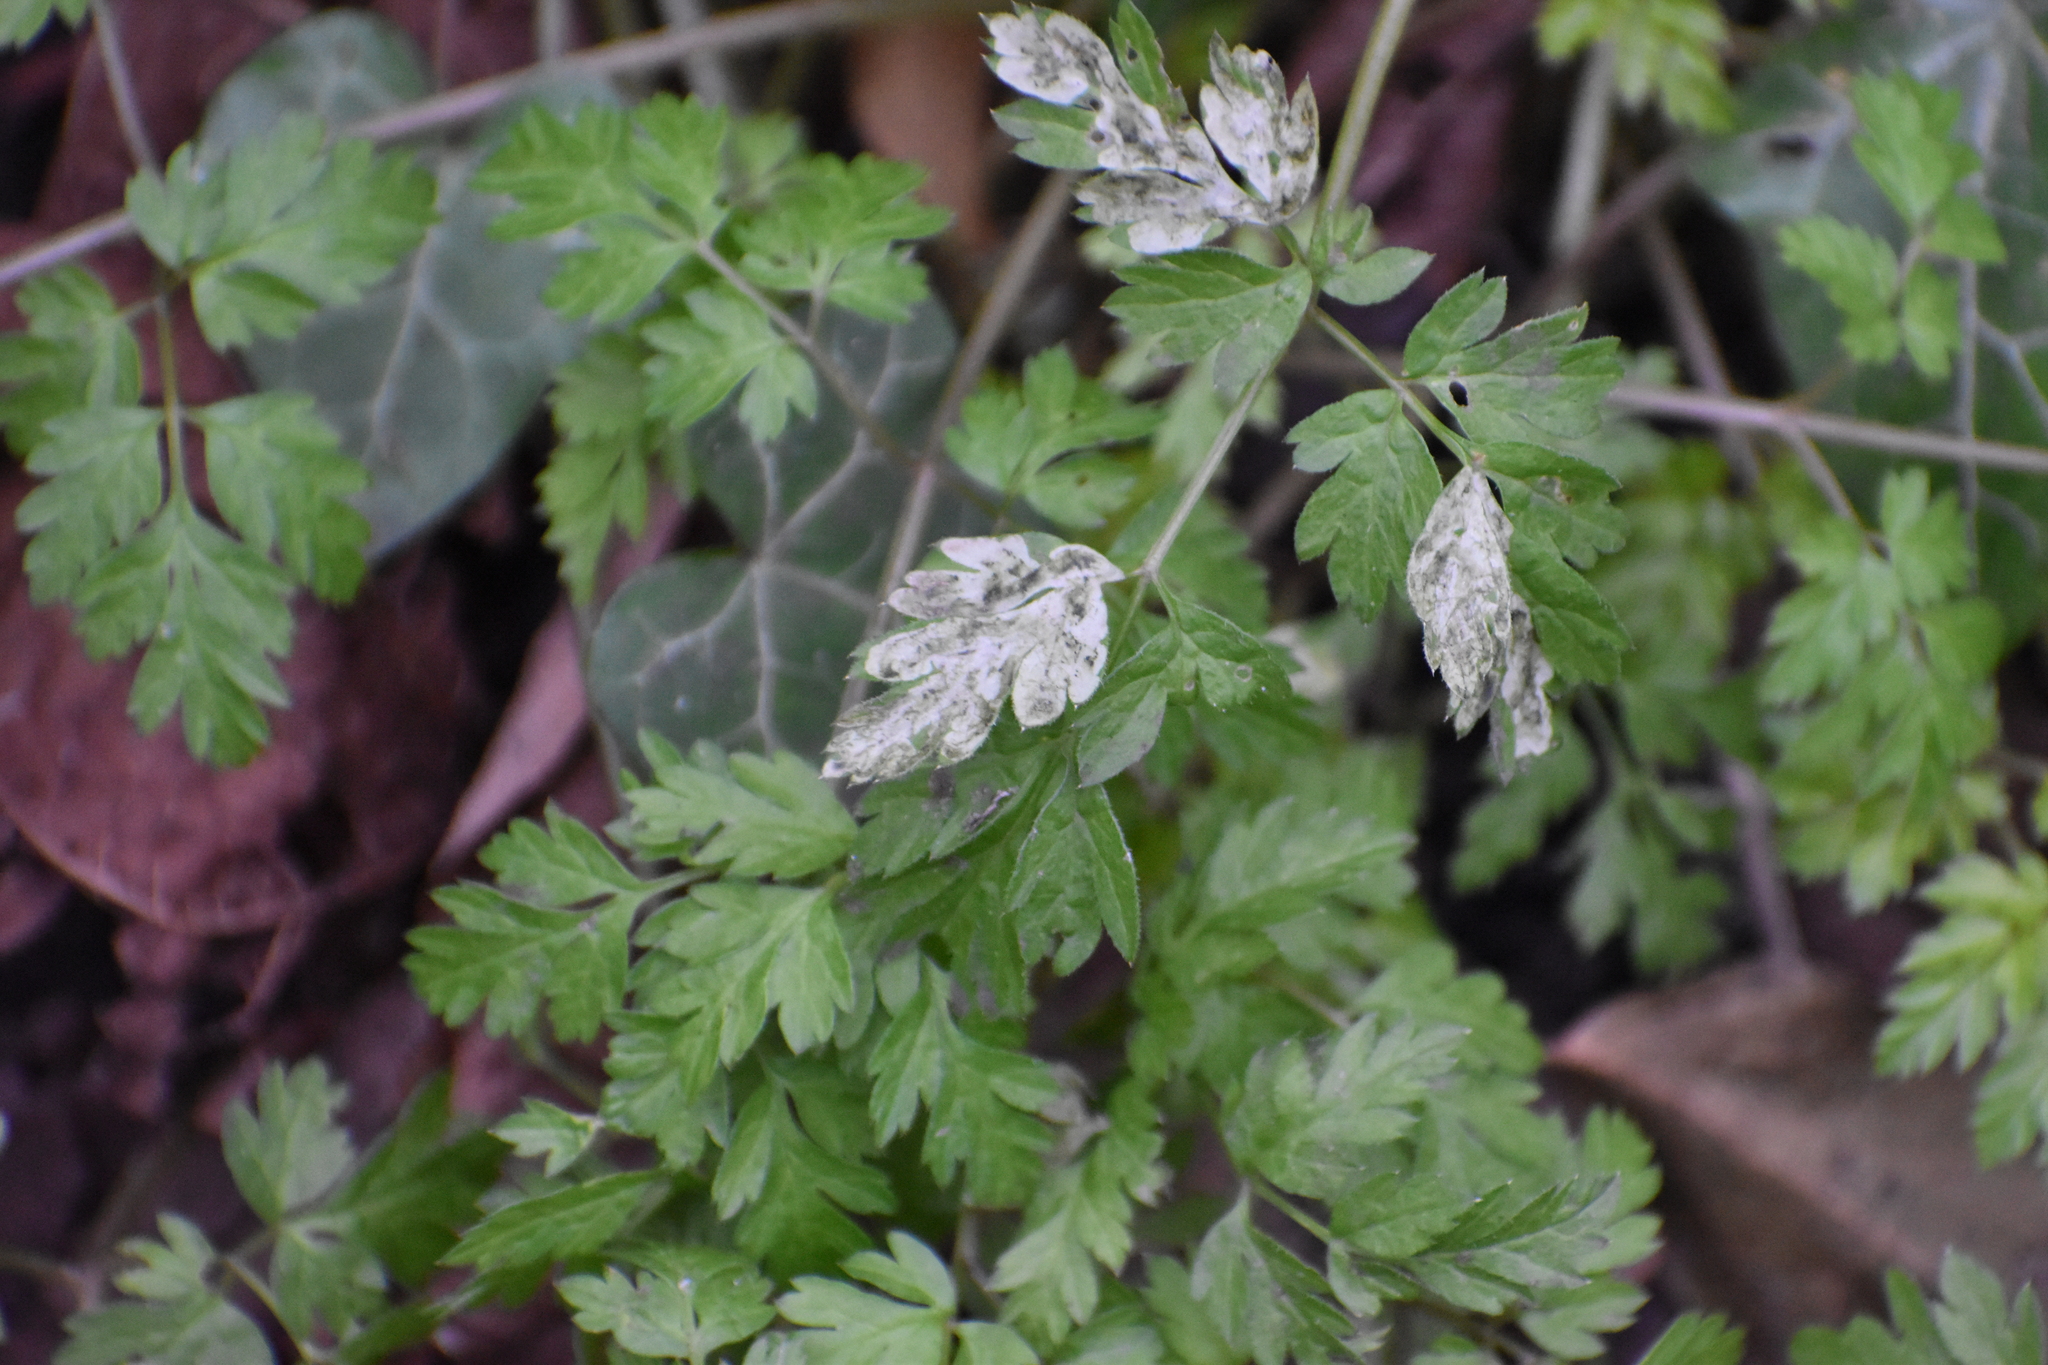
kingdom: Animalia
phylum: Arthropoda
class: Insecta
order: Diptera
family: Agromyzidae
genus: Phytomyza
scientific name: Phytomyza chaerophylli
